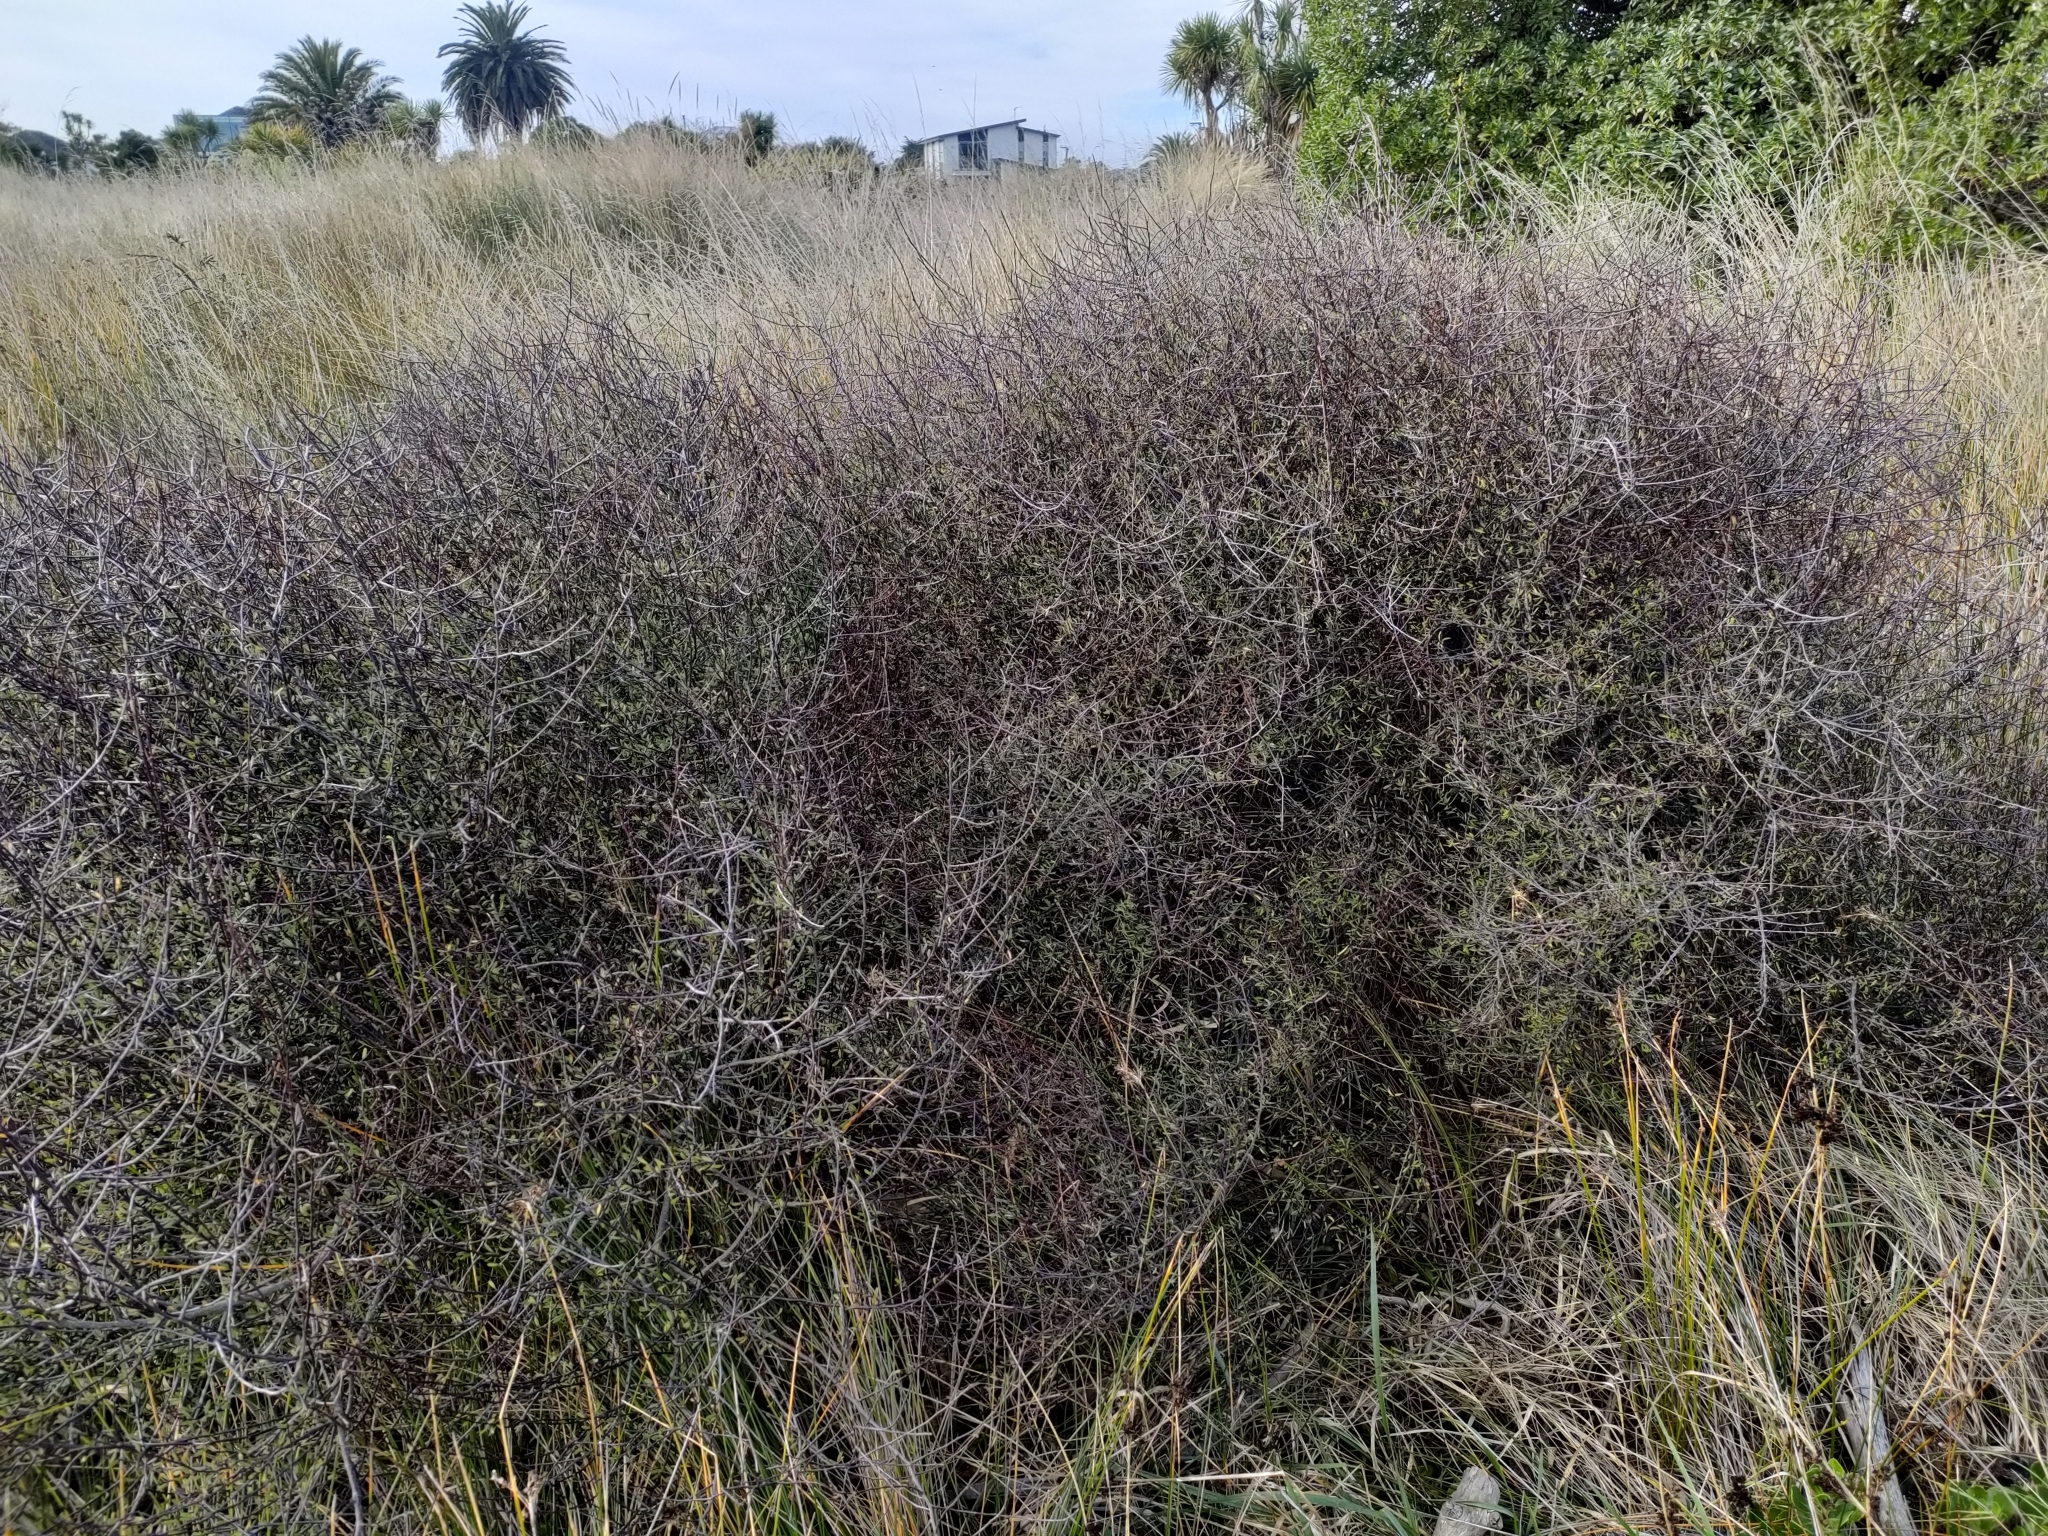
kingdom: Plantae
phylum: Tracheophyta
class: Magnoliopsida
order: Malvales
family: Malvaceae
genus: Plagianthus
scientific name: Plagianthus divaricatus
